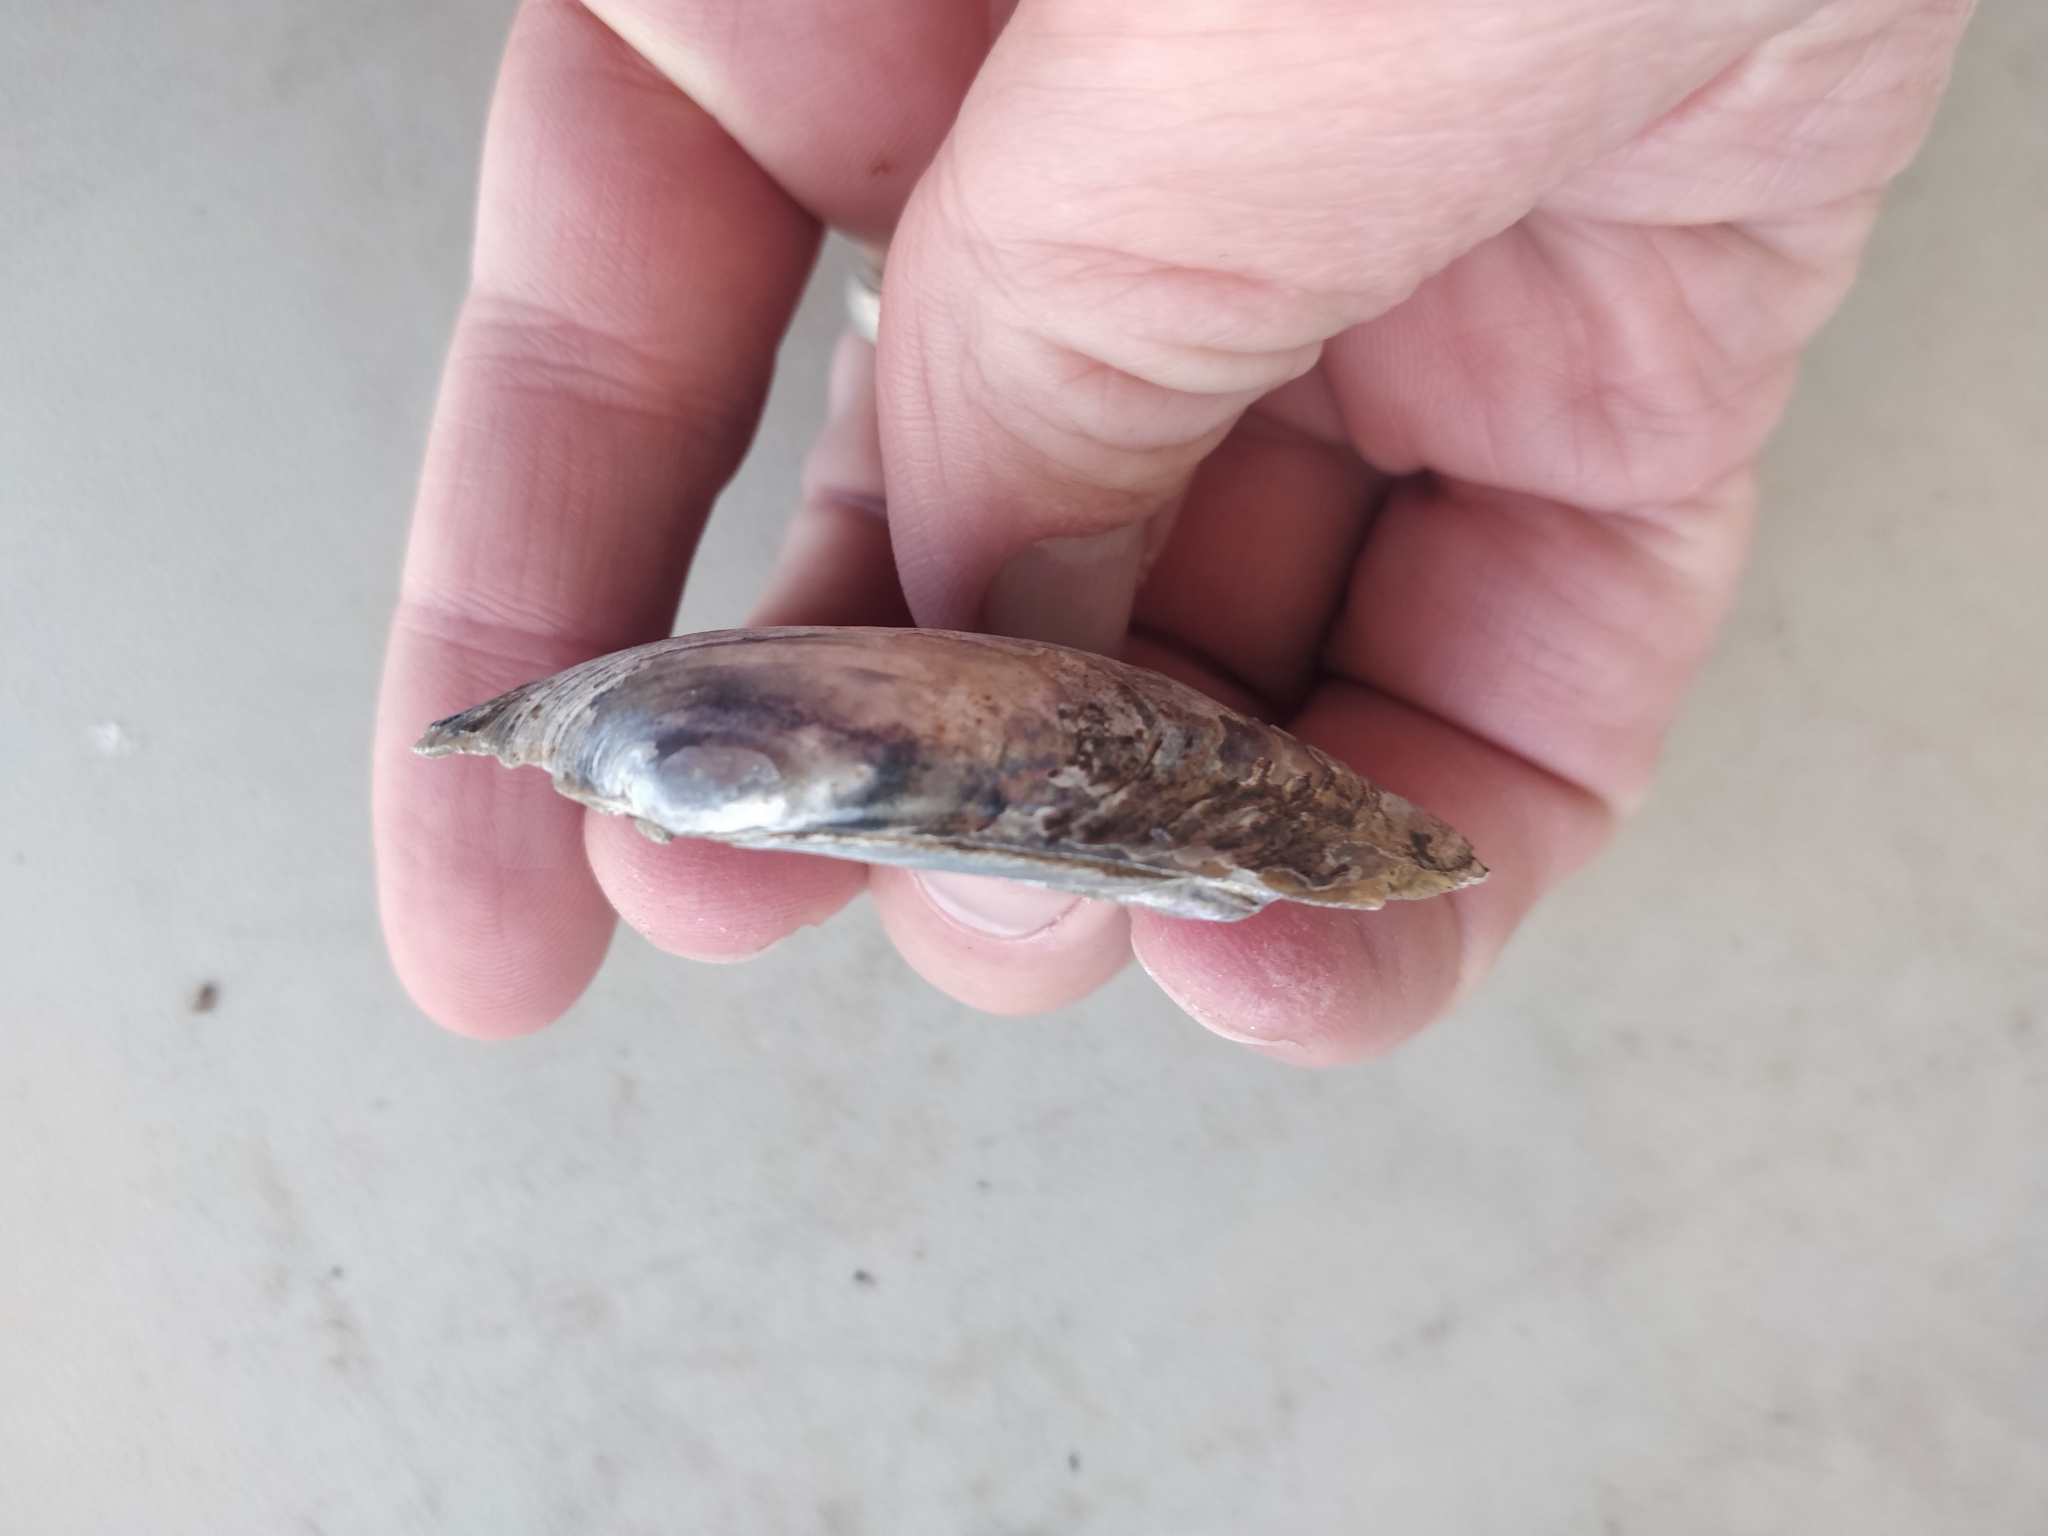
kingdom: Animalia
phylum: Mollusca
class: Bivalvia
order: Unionida
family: Unionidae
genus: Lampsilis
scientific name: Lampsilis siliquoidea
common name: Fatmucket
